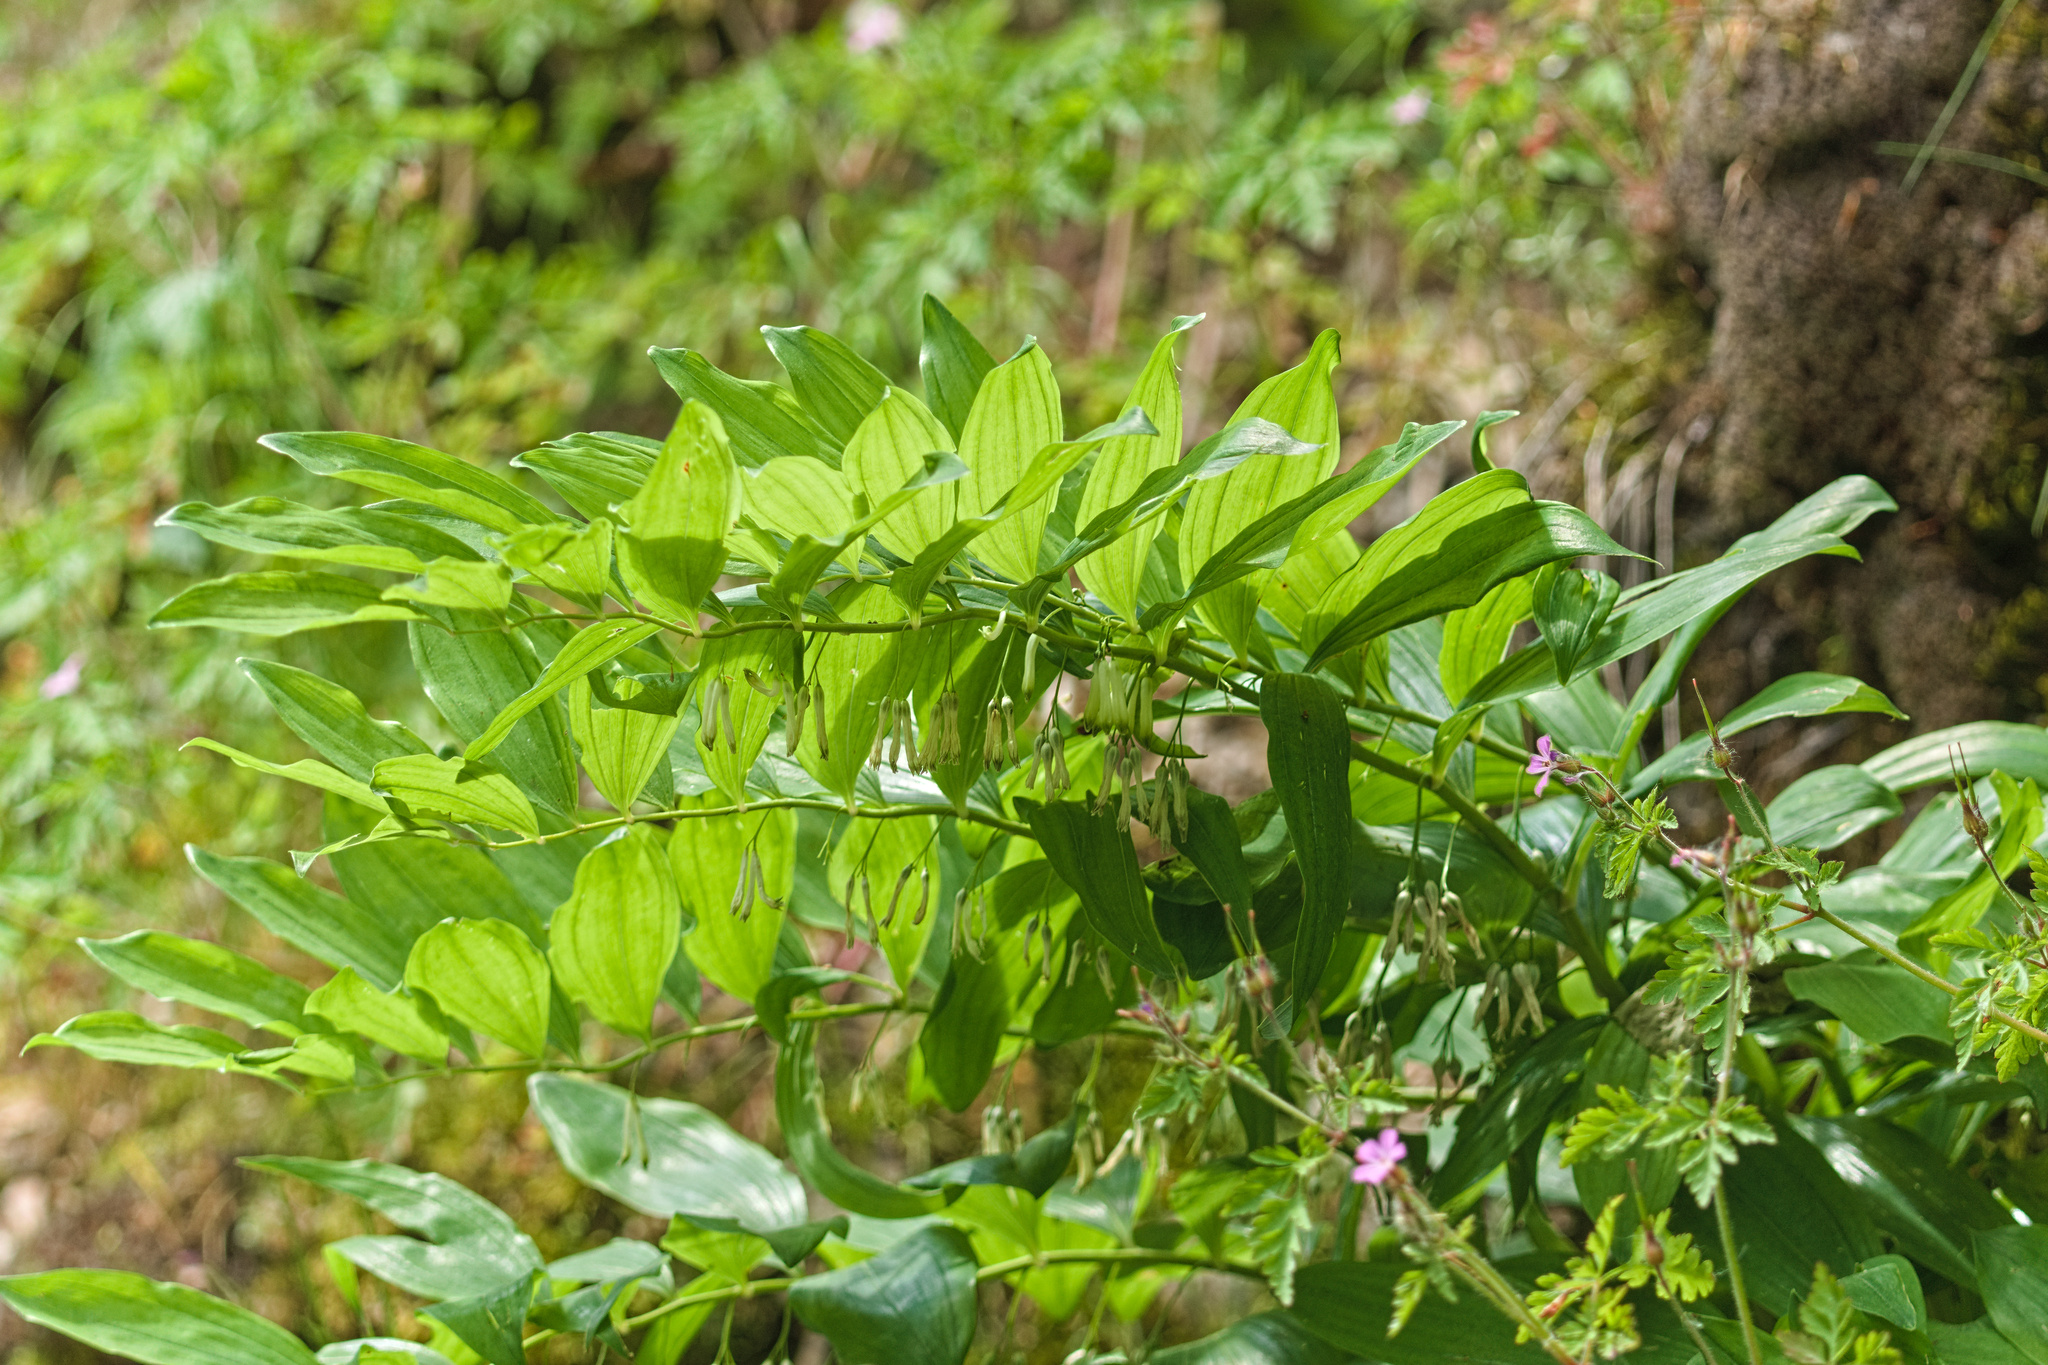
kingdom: Plantae
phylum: Tracheophyta
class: Liliopsida
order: Asparagales
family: Asparagaceae
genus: Polygonatum
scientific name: Polygonatum multiflorum
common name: Solomon's-seal
